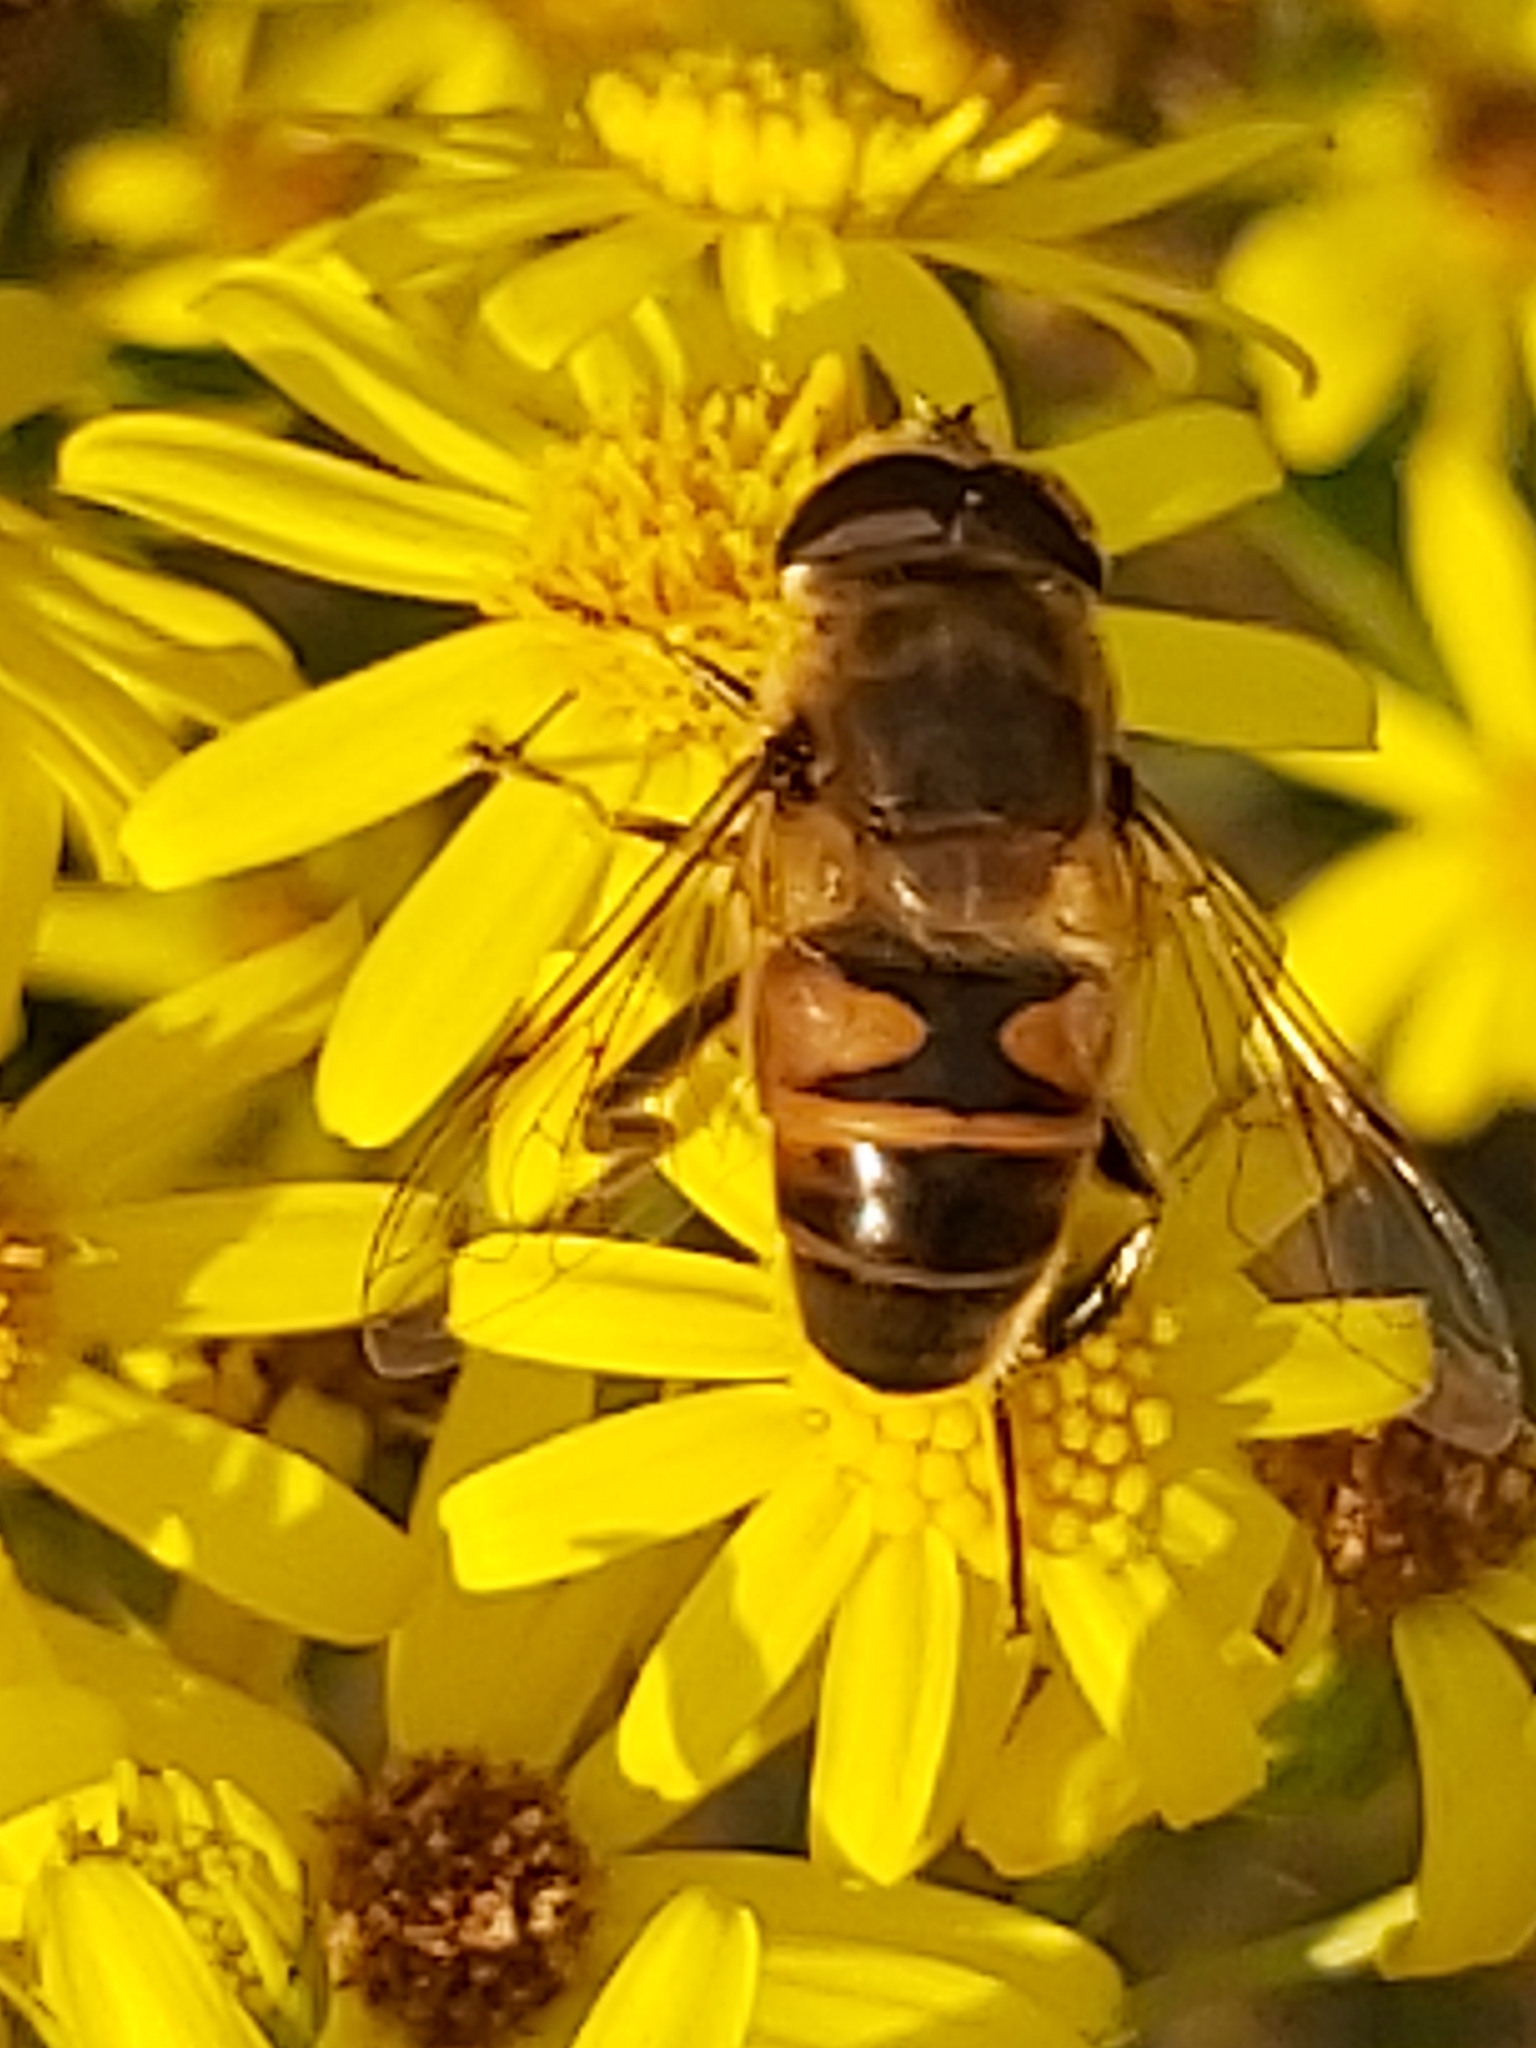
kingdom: Animalia
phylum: Arthropoda
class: Insecta
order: Diptera
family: Syrphidae
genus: Eristalis
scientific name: Eristalis tenax
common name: Drone fly
